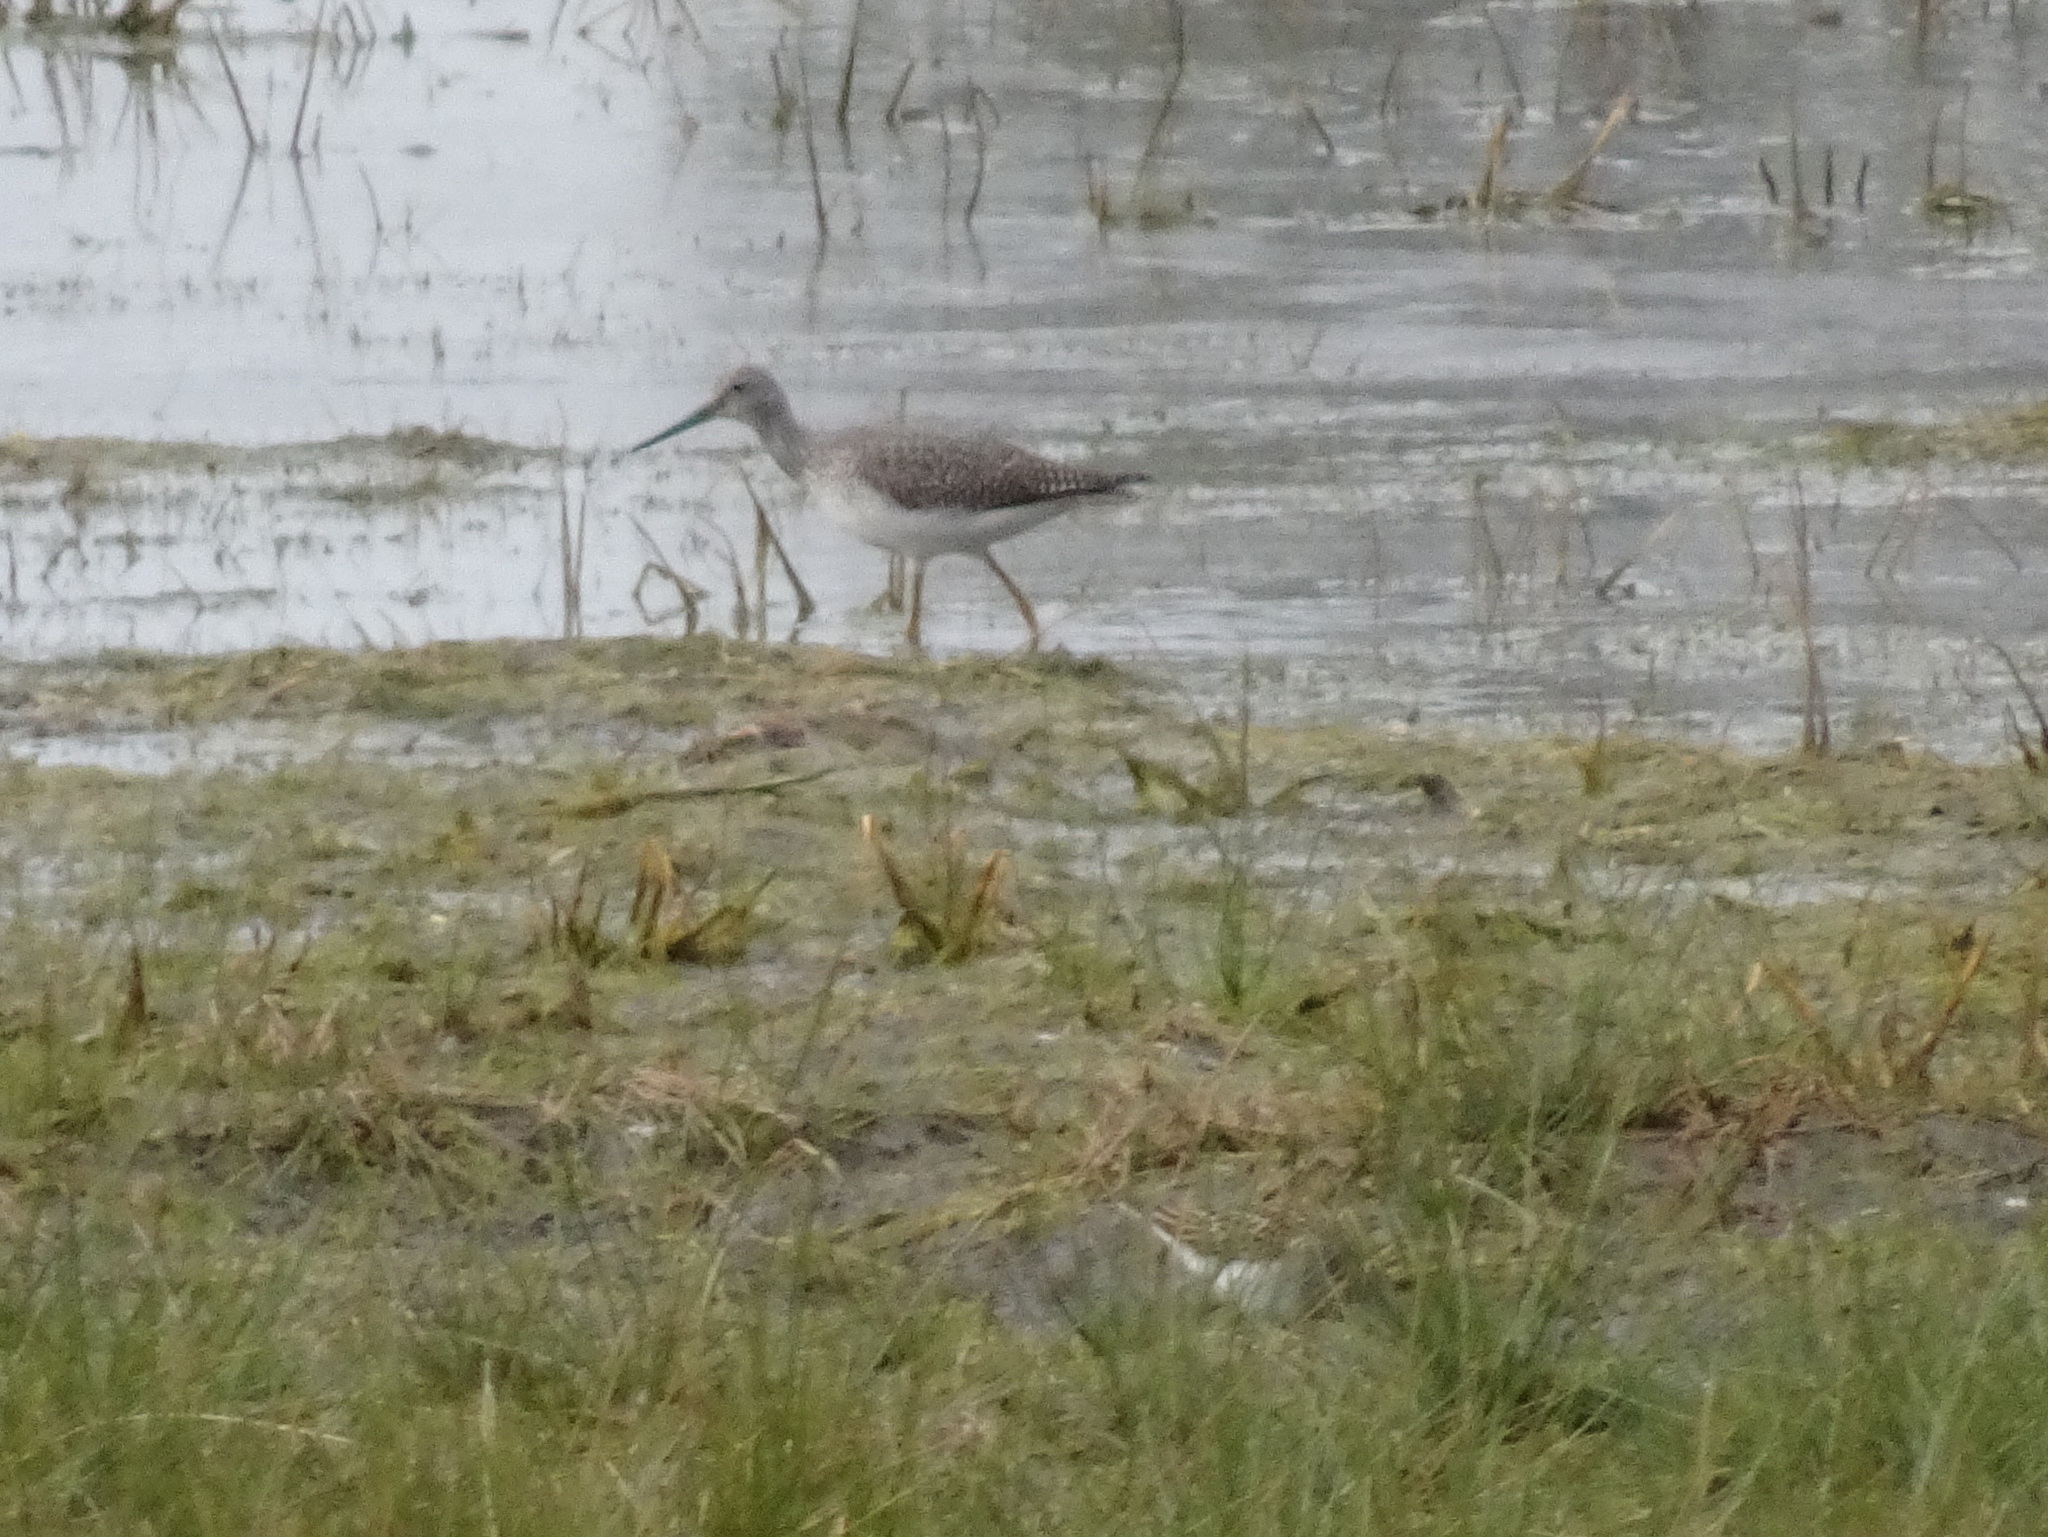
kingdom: Animalia
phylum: Chordata
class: Aves
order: Charadriiformes
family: Scolopacidae
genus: Tringa
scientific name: Tringa melanoleuca
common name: Greater yellowlegs
